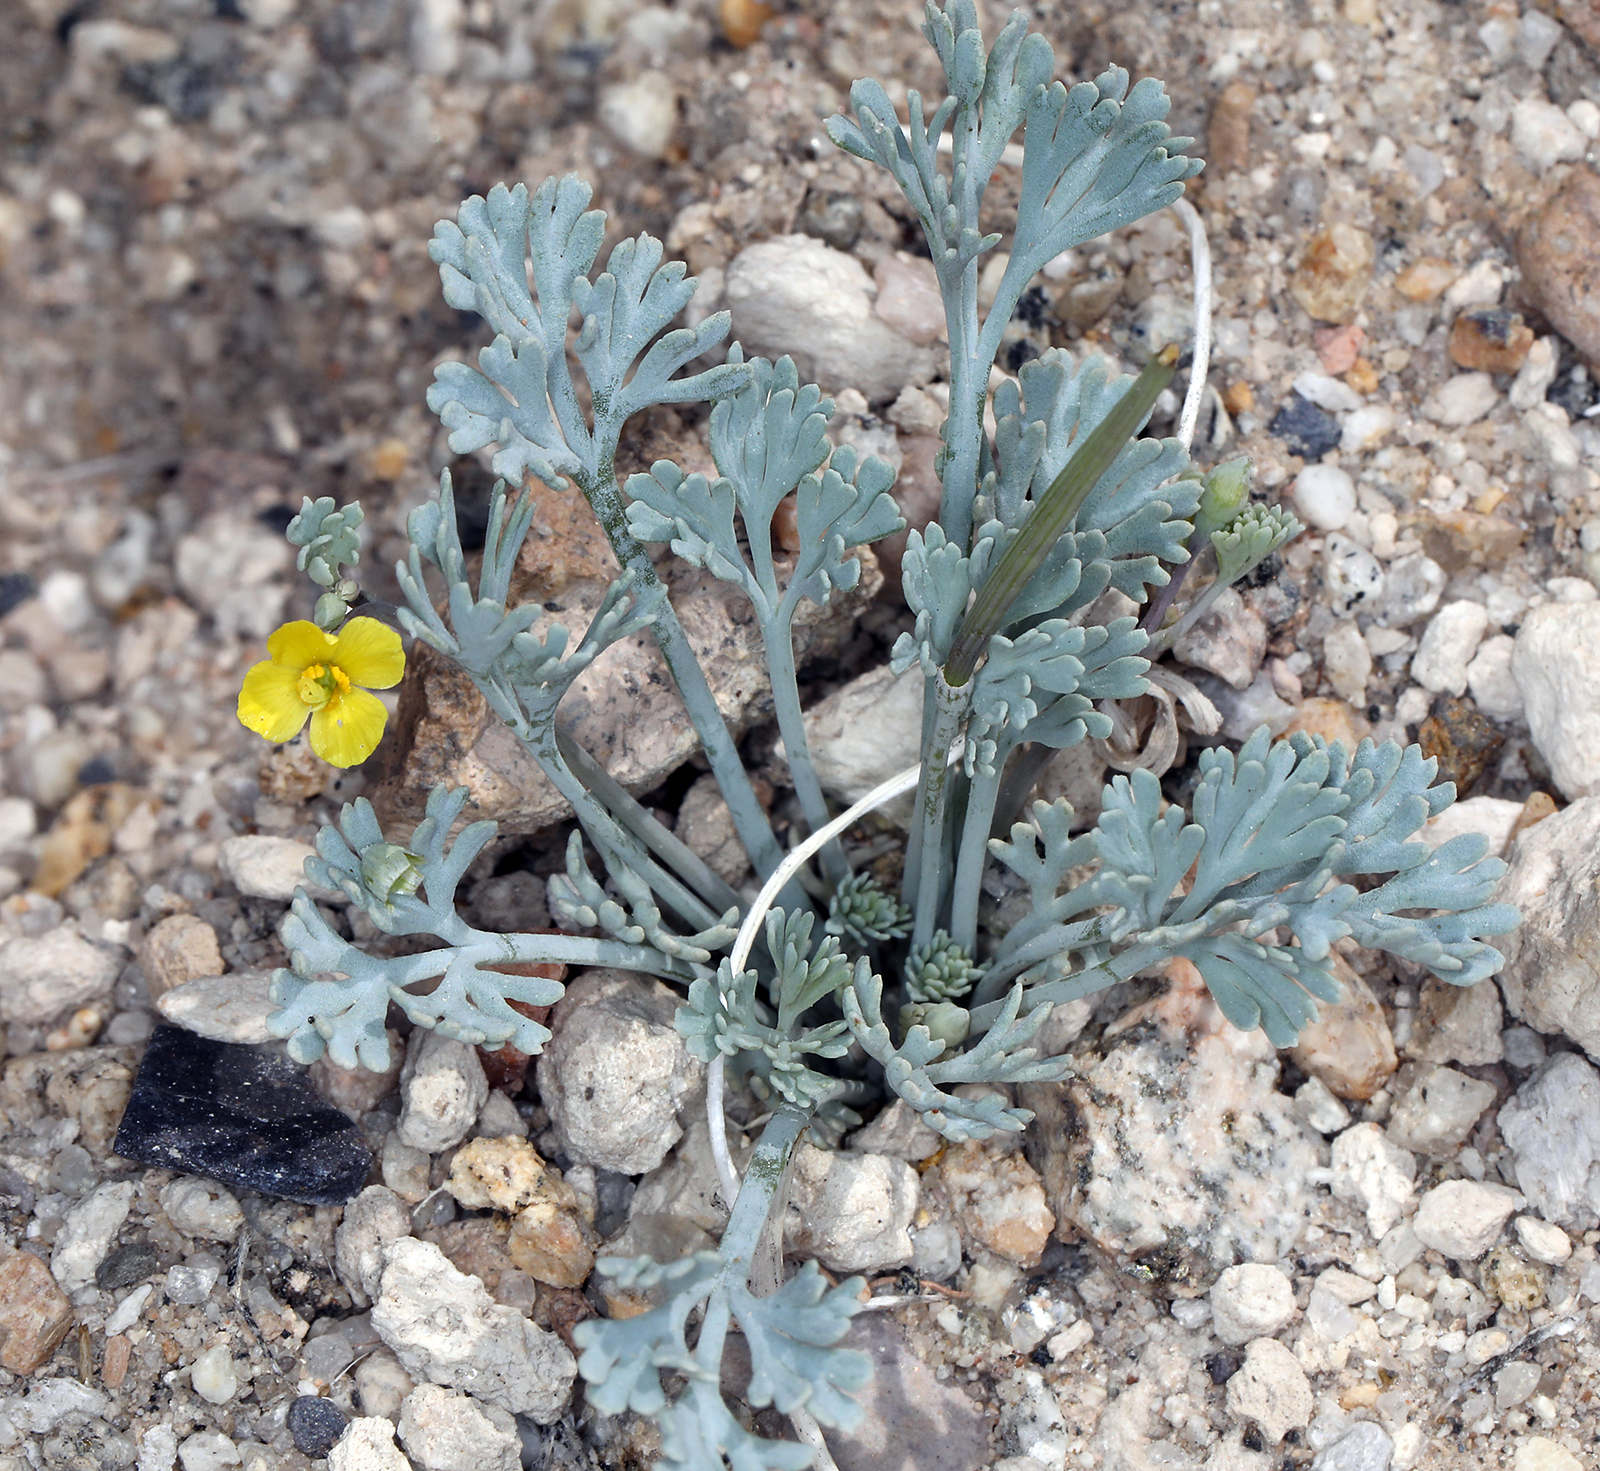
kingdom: Plantae
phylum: Tracheophyta
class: Magnoliopsida
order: Ranunculales
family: Papaveraceae
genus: Eschscholzia
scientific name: Eschscholzia minutiflora
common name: Small-flower california-poppy
